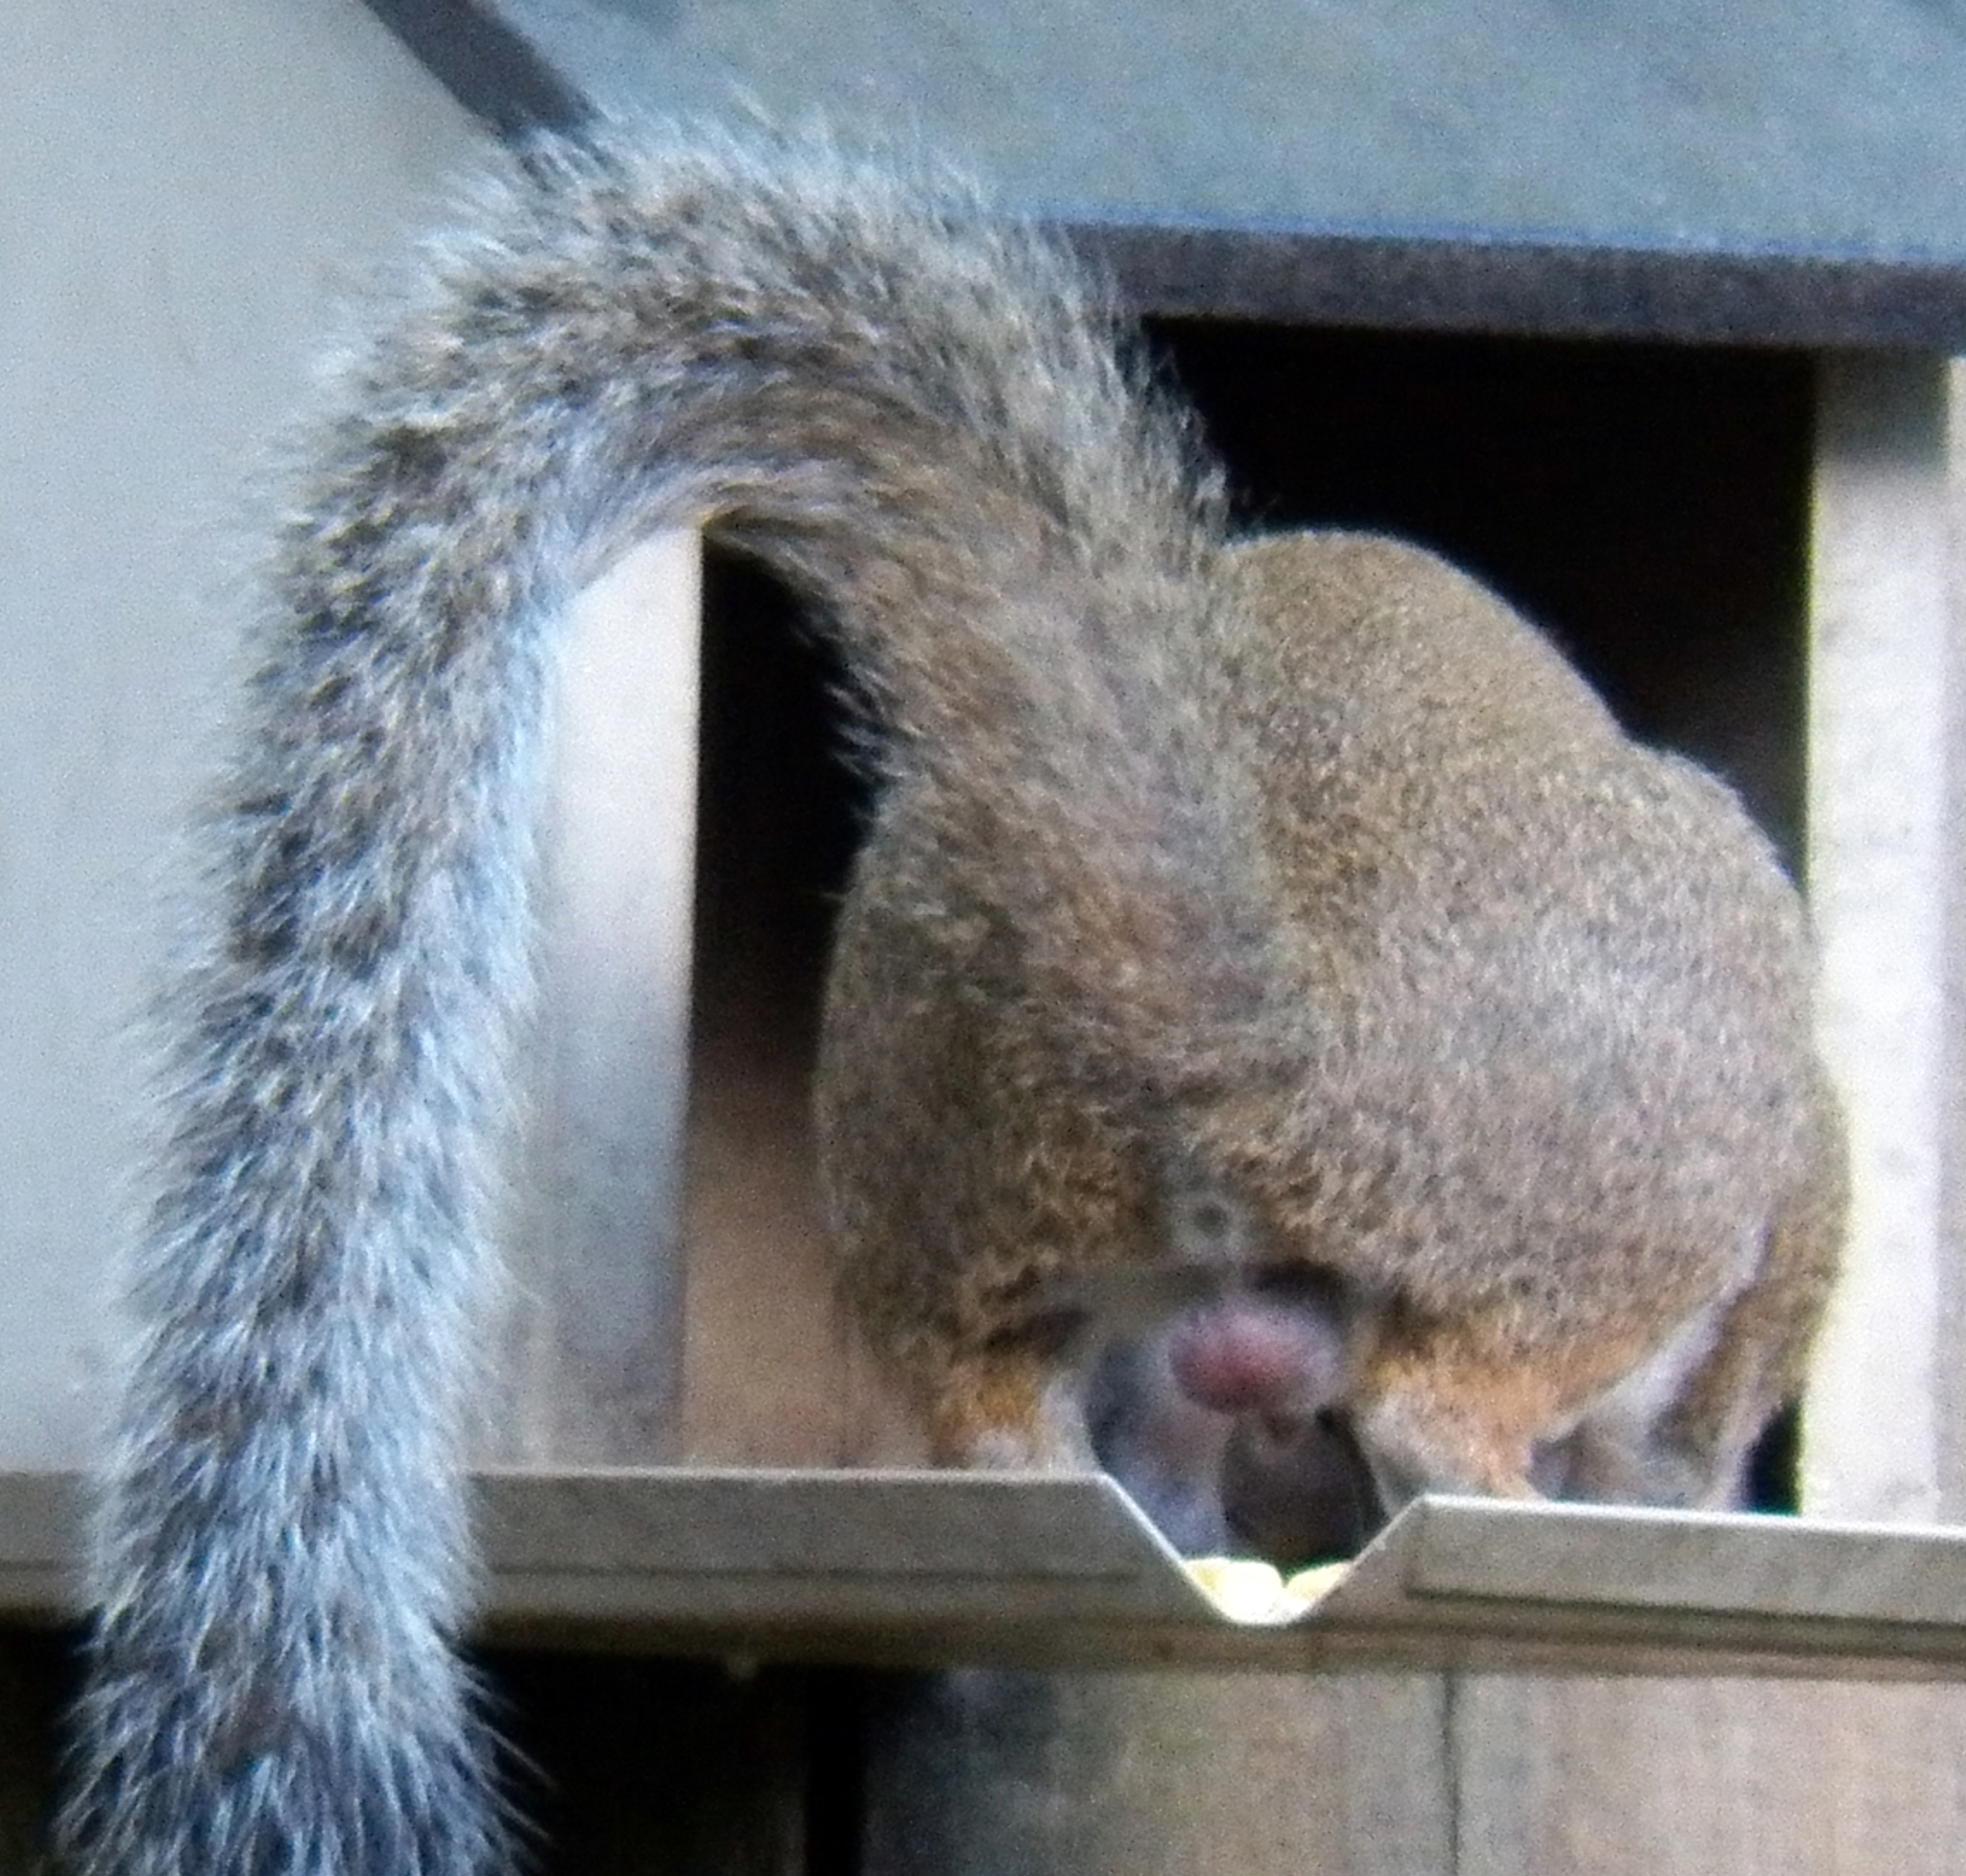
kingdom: Animalia
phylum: Chordata
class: Mammalia
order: Rodentia
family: Sciuridae
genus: Sciurus
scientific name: Sciurus carolinensis
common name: Eastern gray squirrel
